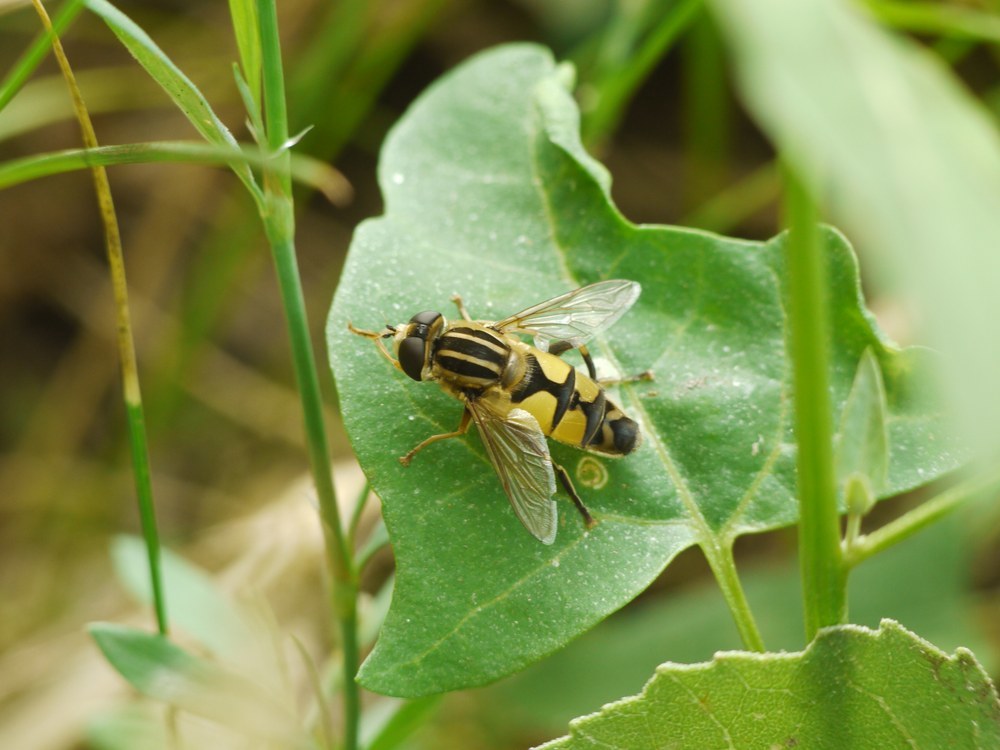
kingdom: Animalia
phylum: Arthropoda
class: Insecta
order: Diptera
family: Syrphidae
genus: Helophilus
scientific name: Helophilus trivittatus
